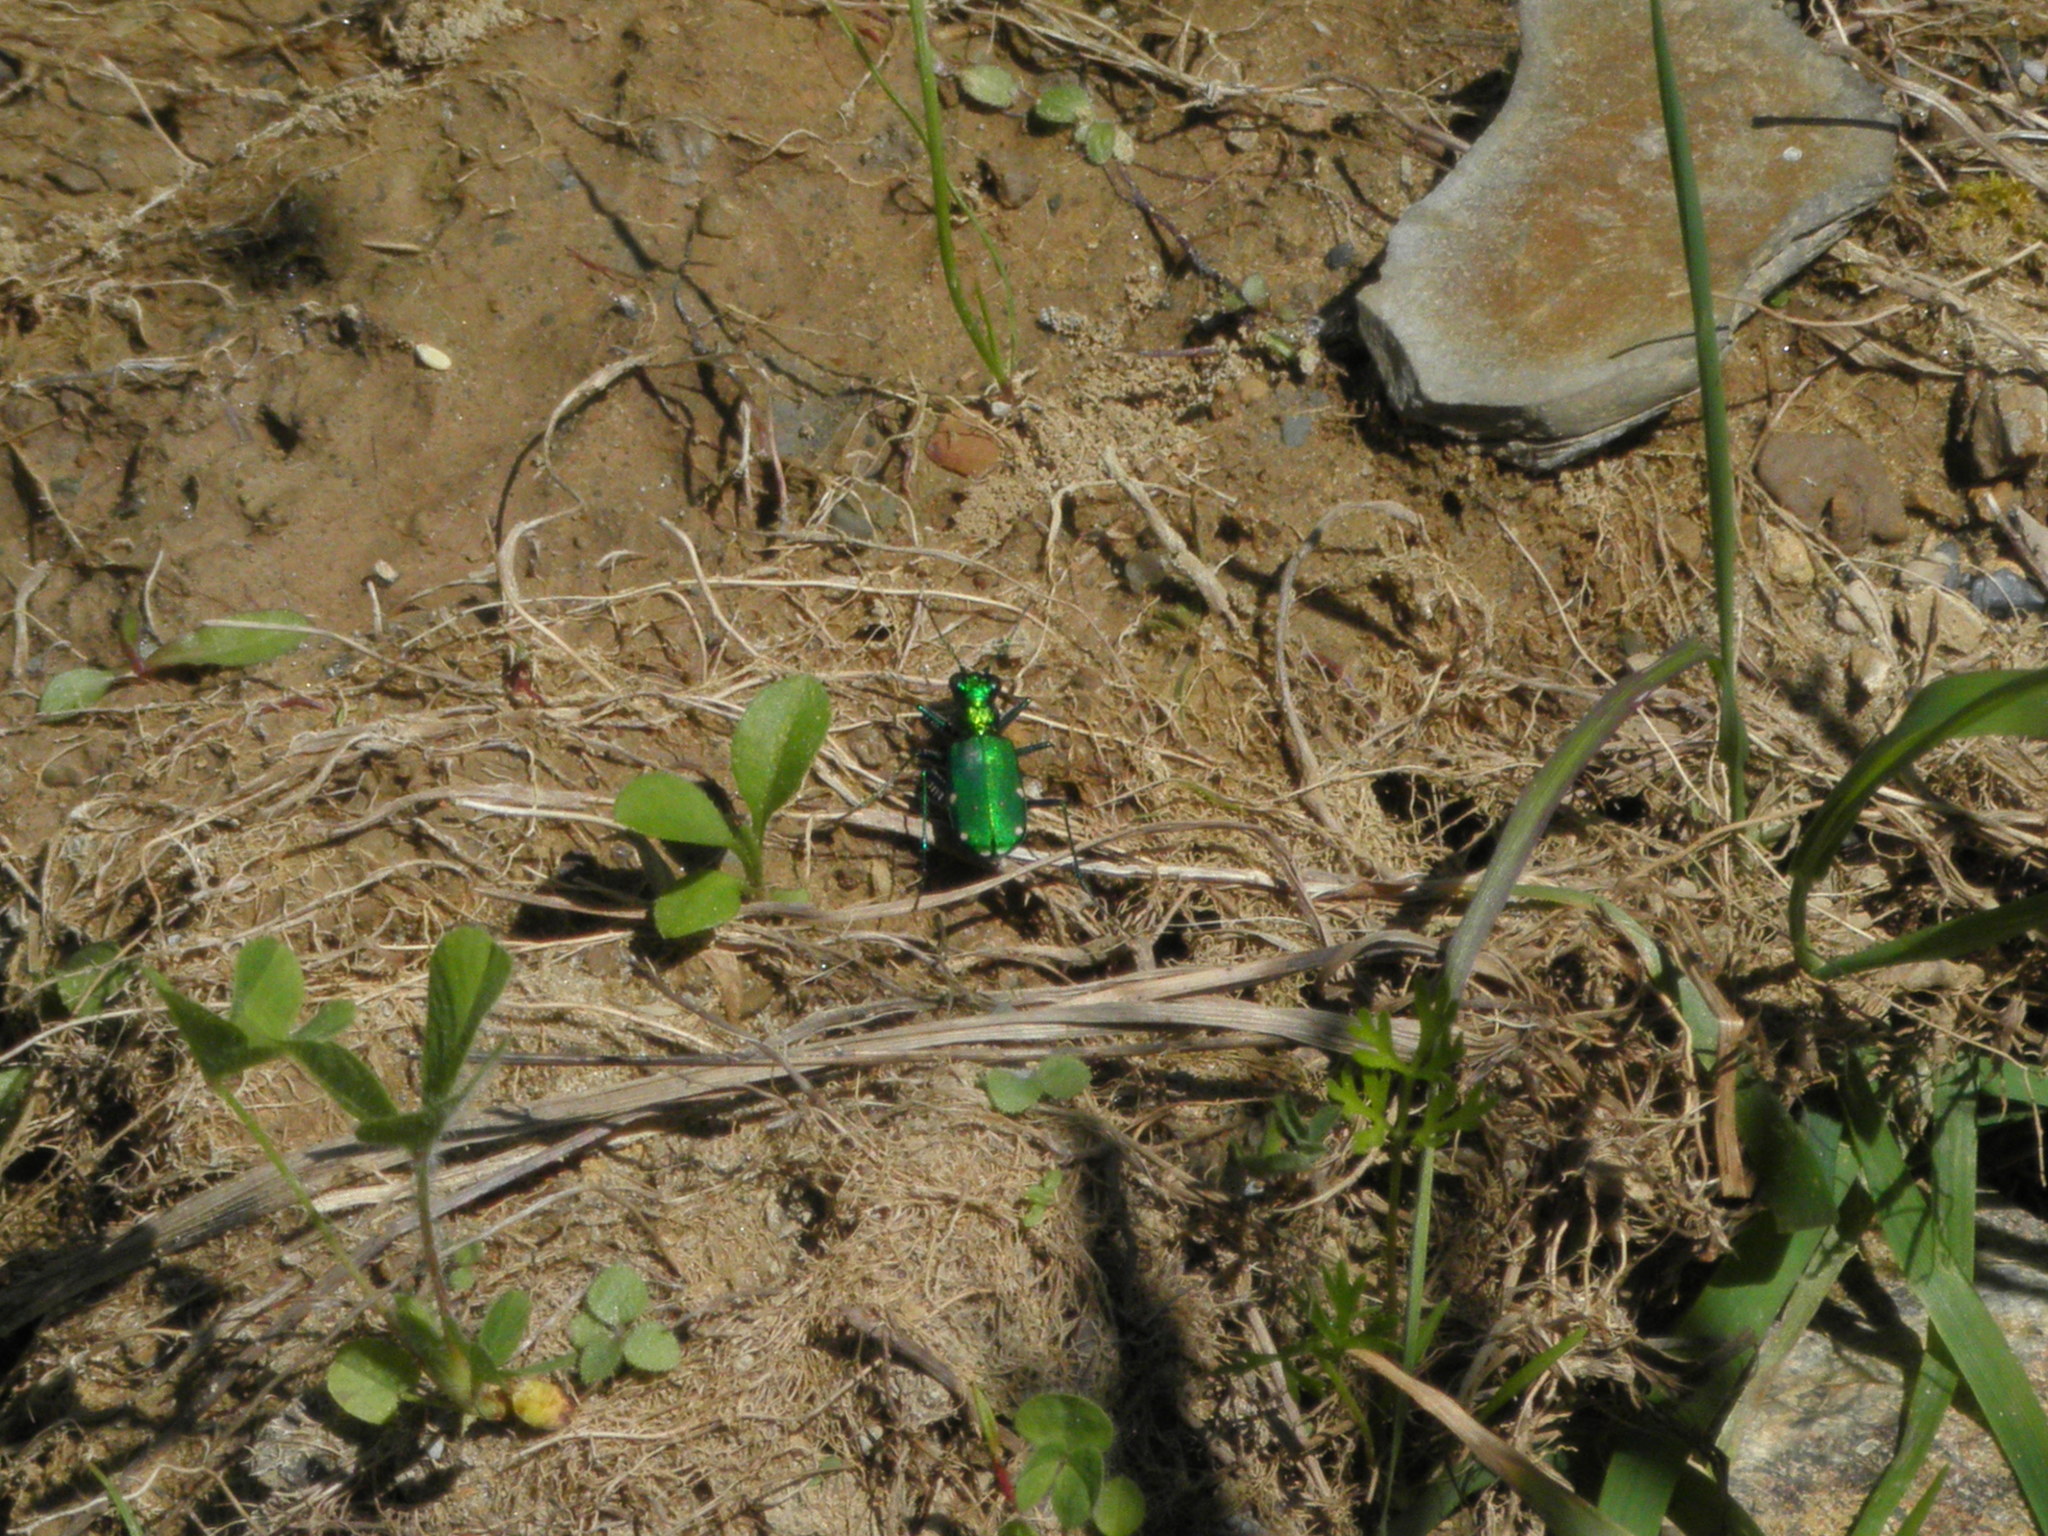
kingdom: Animalia
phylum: Arthropoda
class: Insecta
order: Coleoptera
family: Carabidae
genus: Cicindela
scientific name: Cicindela sexguttata
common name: Six-spotted tiger beetle
